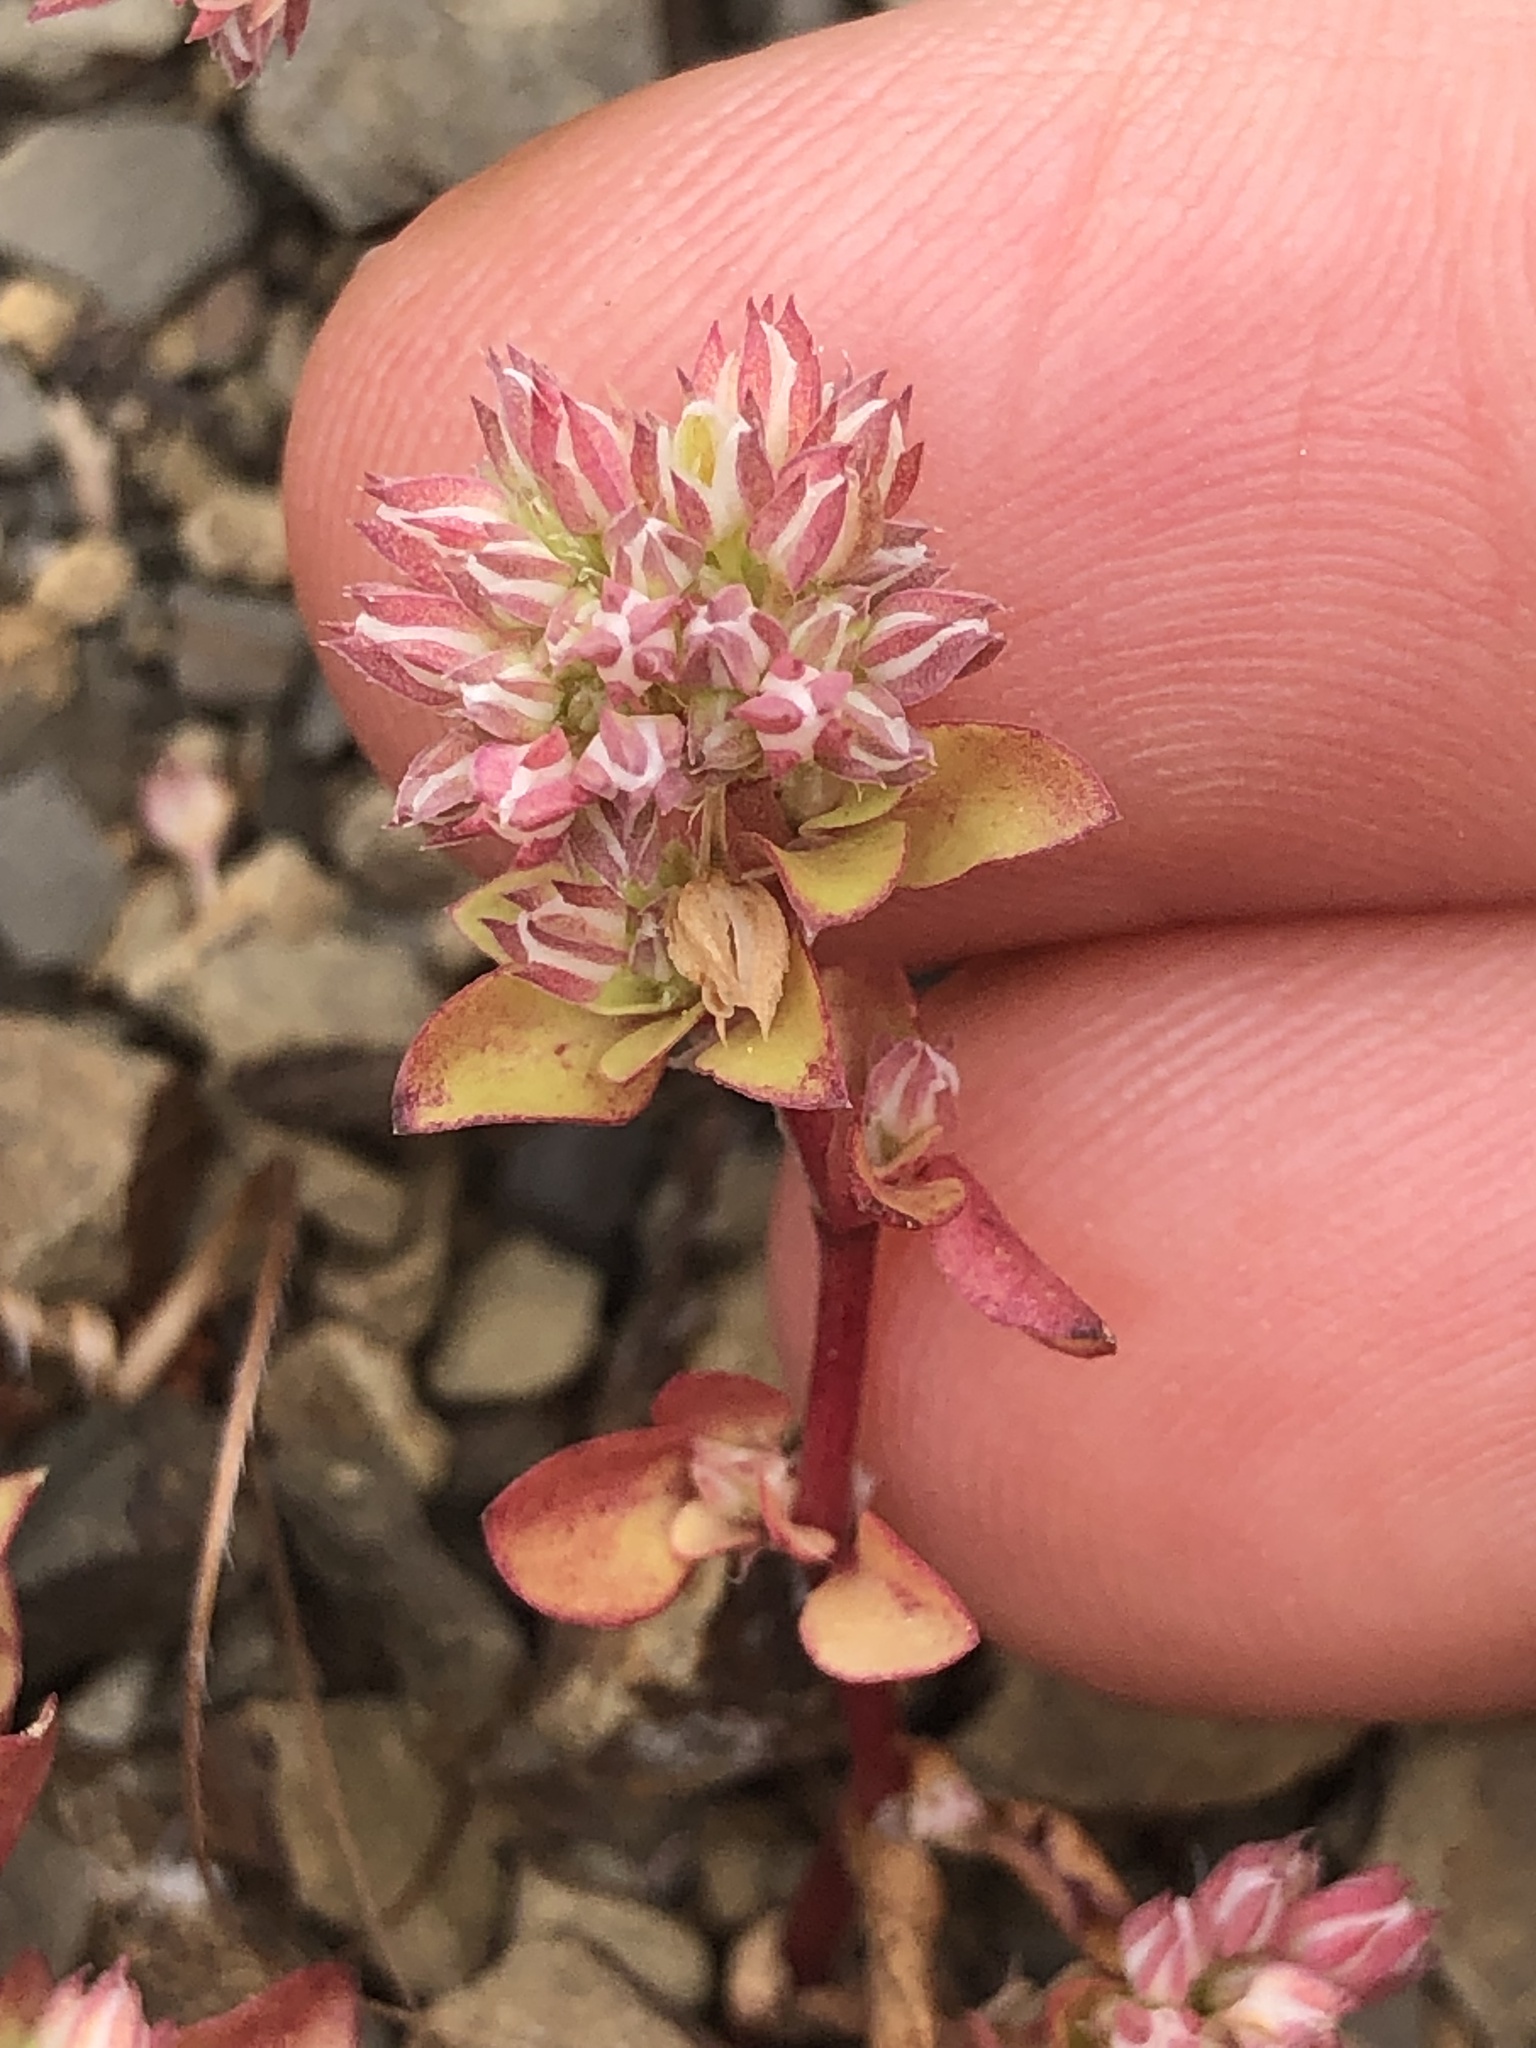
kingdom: Plantae
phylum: Tracheophyta
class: Magnoliopsida
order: Caryophyllales
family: Caryophyllaceae
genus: Polycarpon
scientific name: Polycarpon tetraphyllum
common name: Four-leaved all-seed
